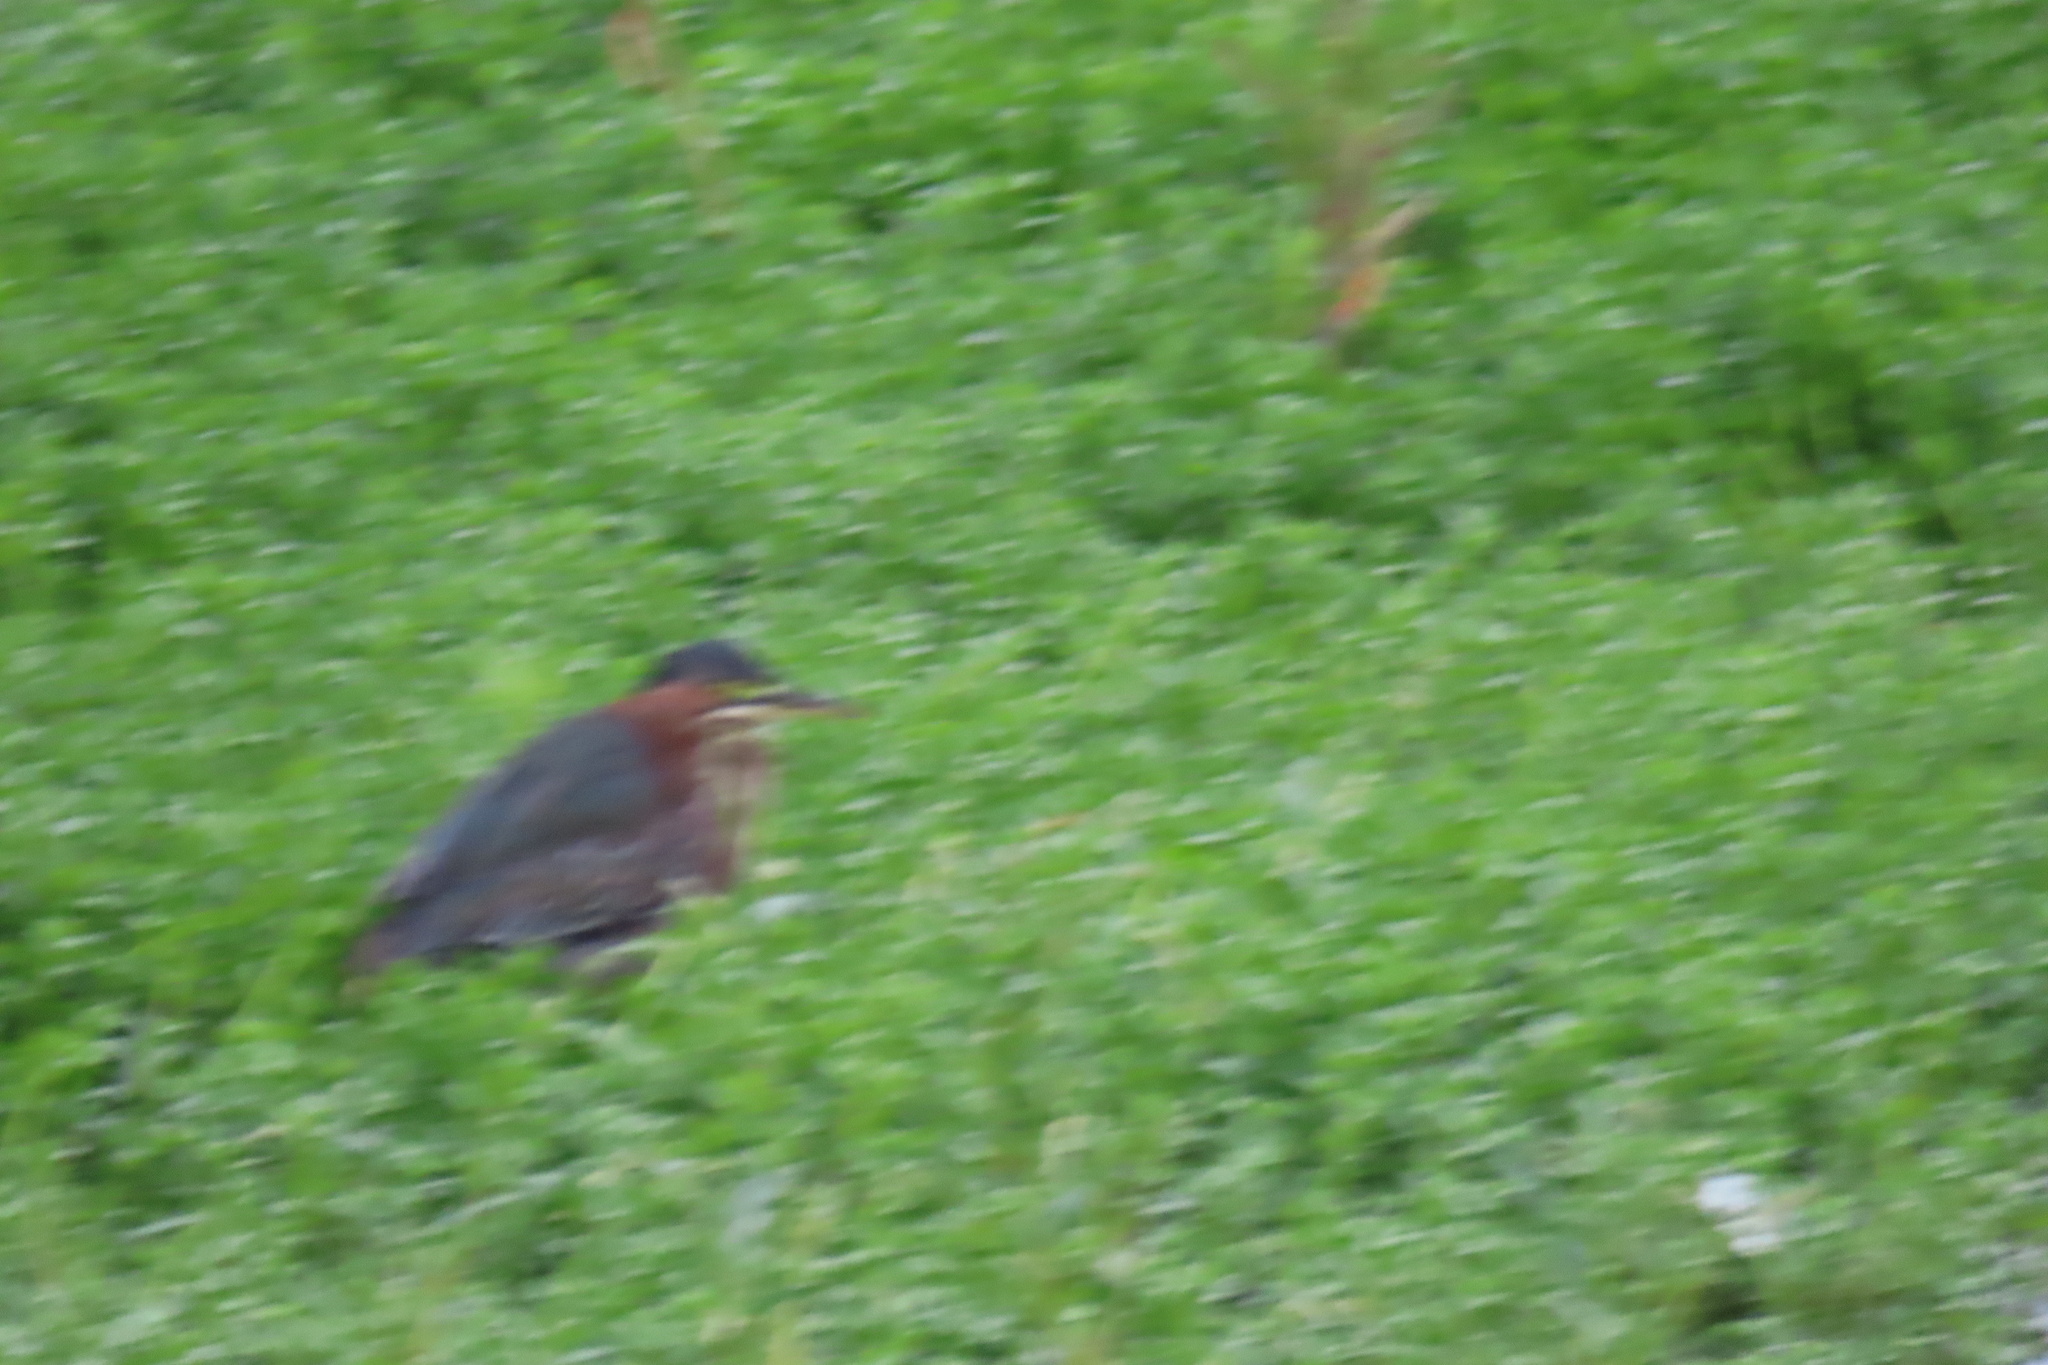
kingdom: Animalia
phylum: Chordata
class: Aves
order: Pelecaniformes
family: Ardeidae
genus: Butorides
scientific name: Butorides virescens
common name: Green heron
